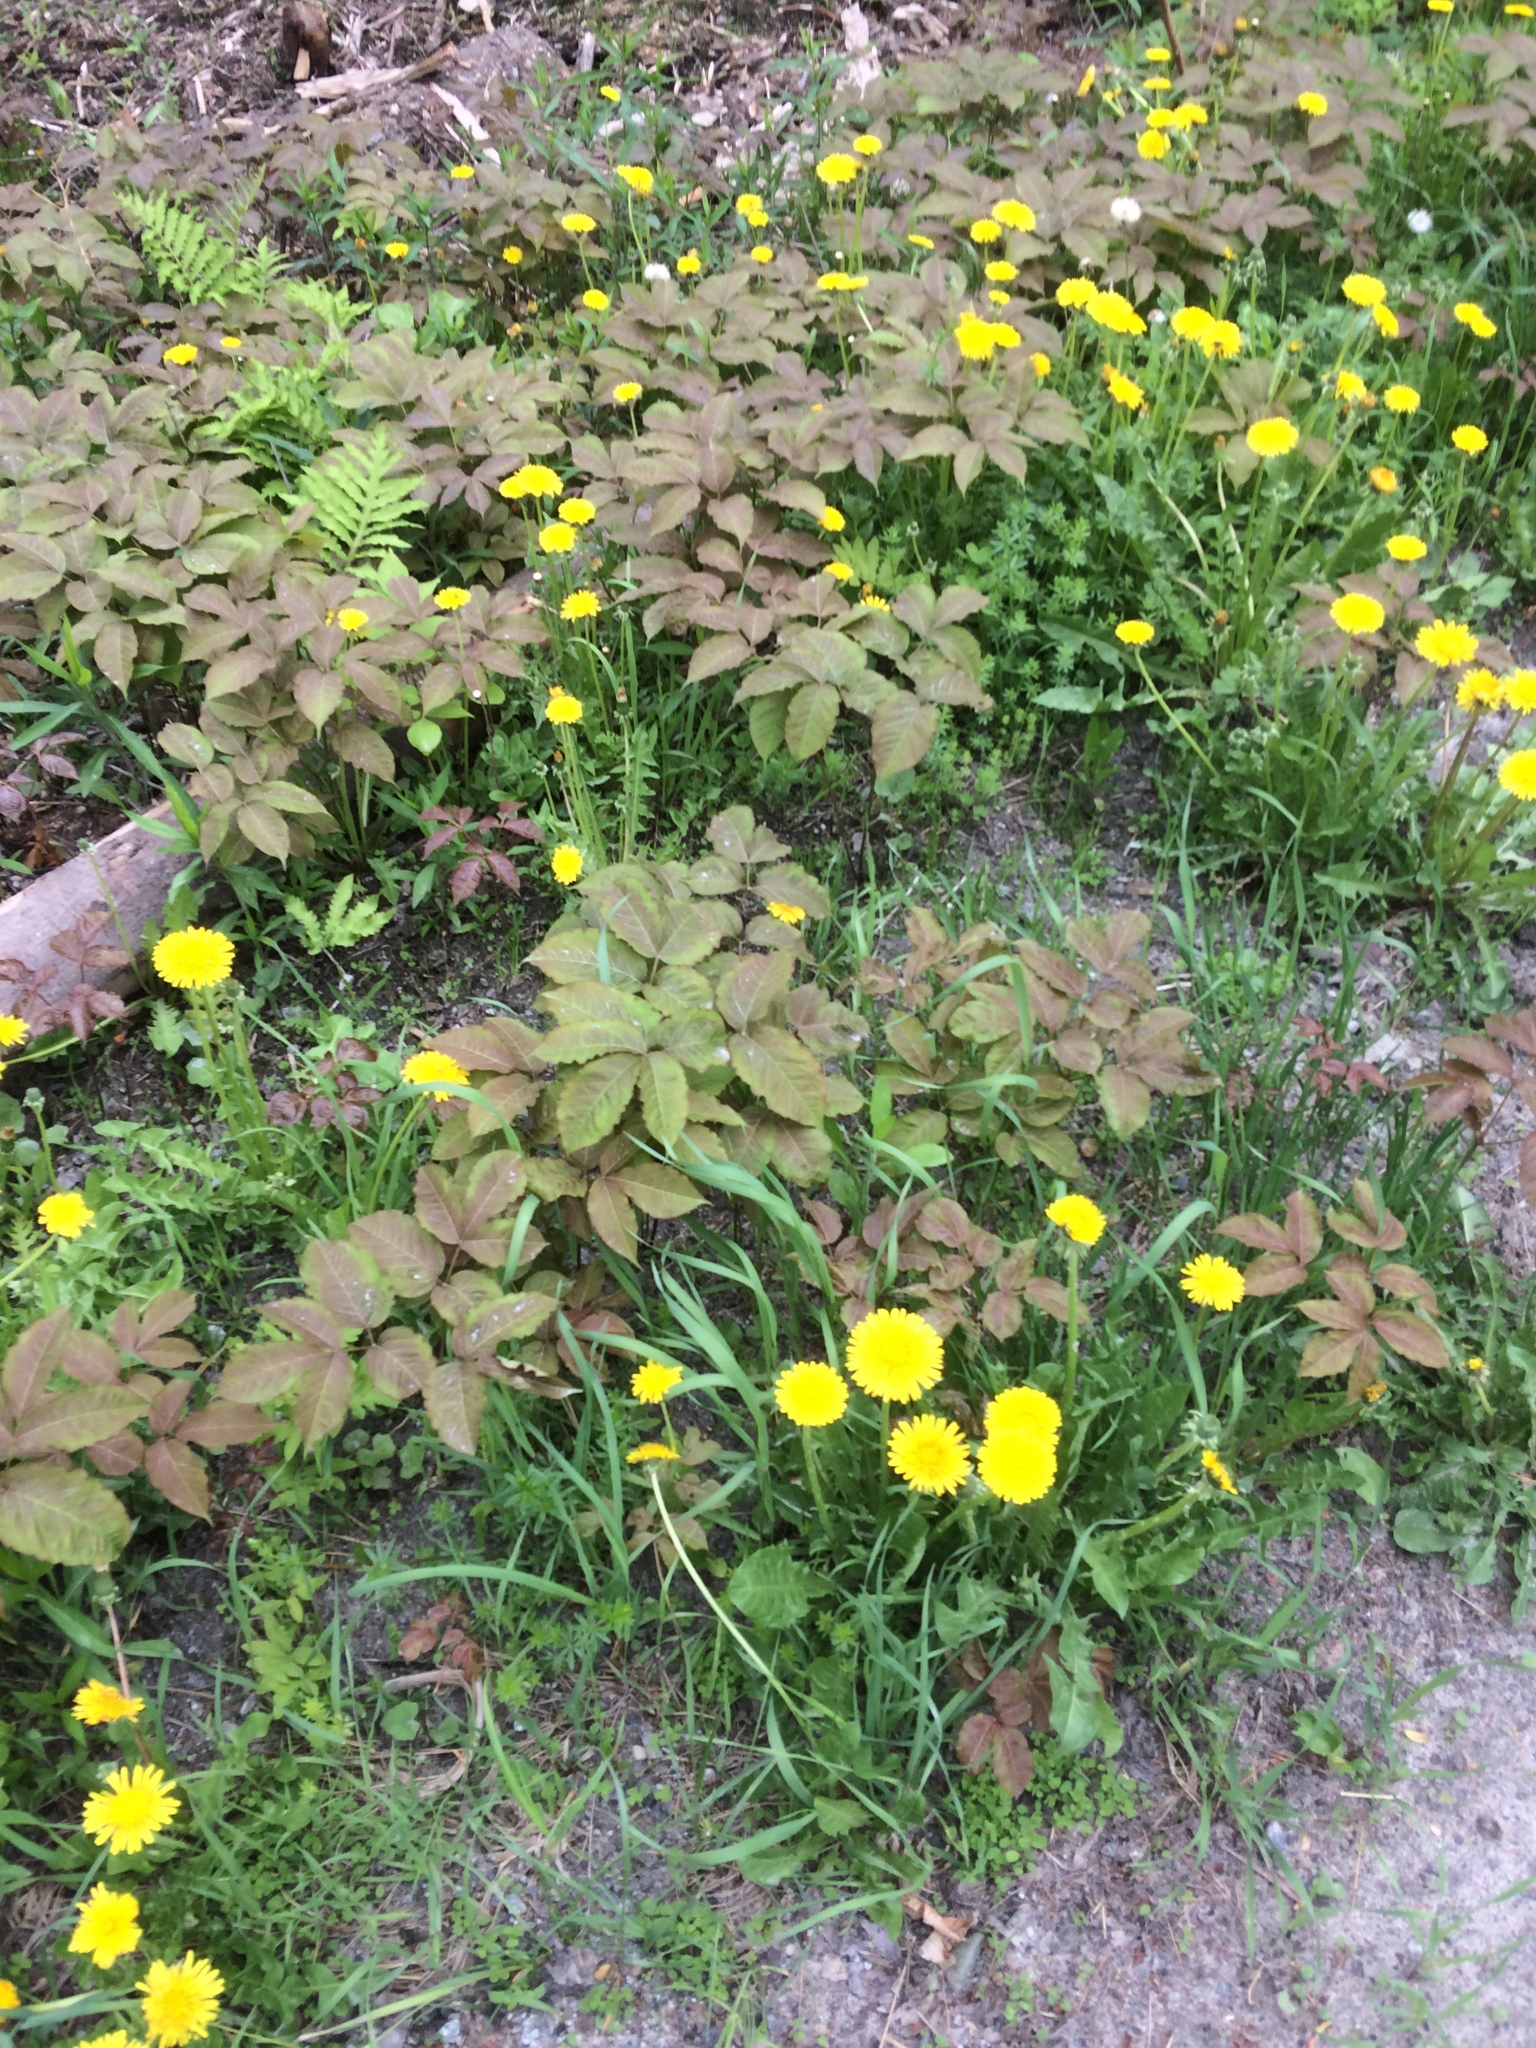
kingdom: Plantae
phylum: Tracheophyta
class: Magnoliopsida
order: Apiales
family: Araliaceae
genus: Aralia
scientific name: Aralia nudicaulis
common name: Wild sarsaparilla
